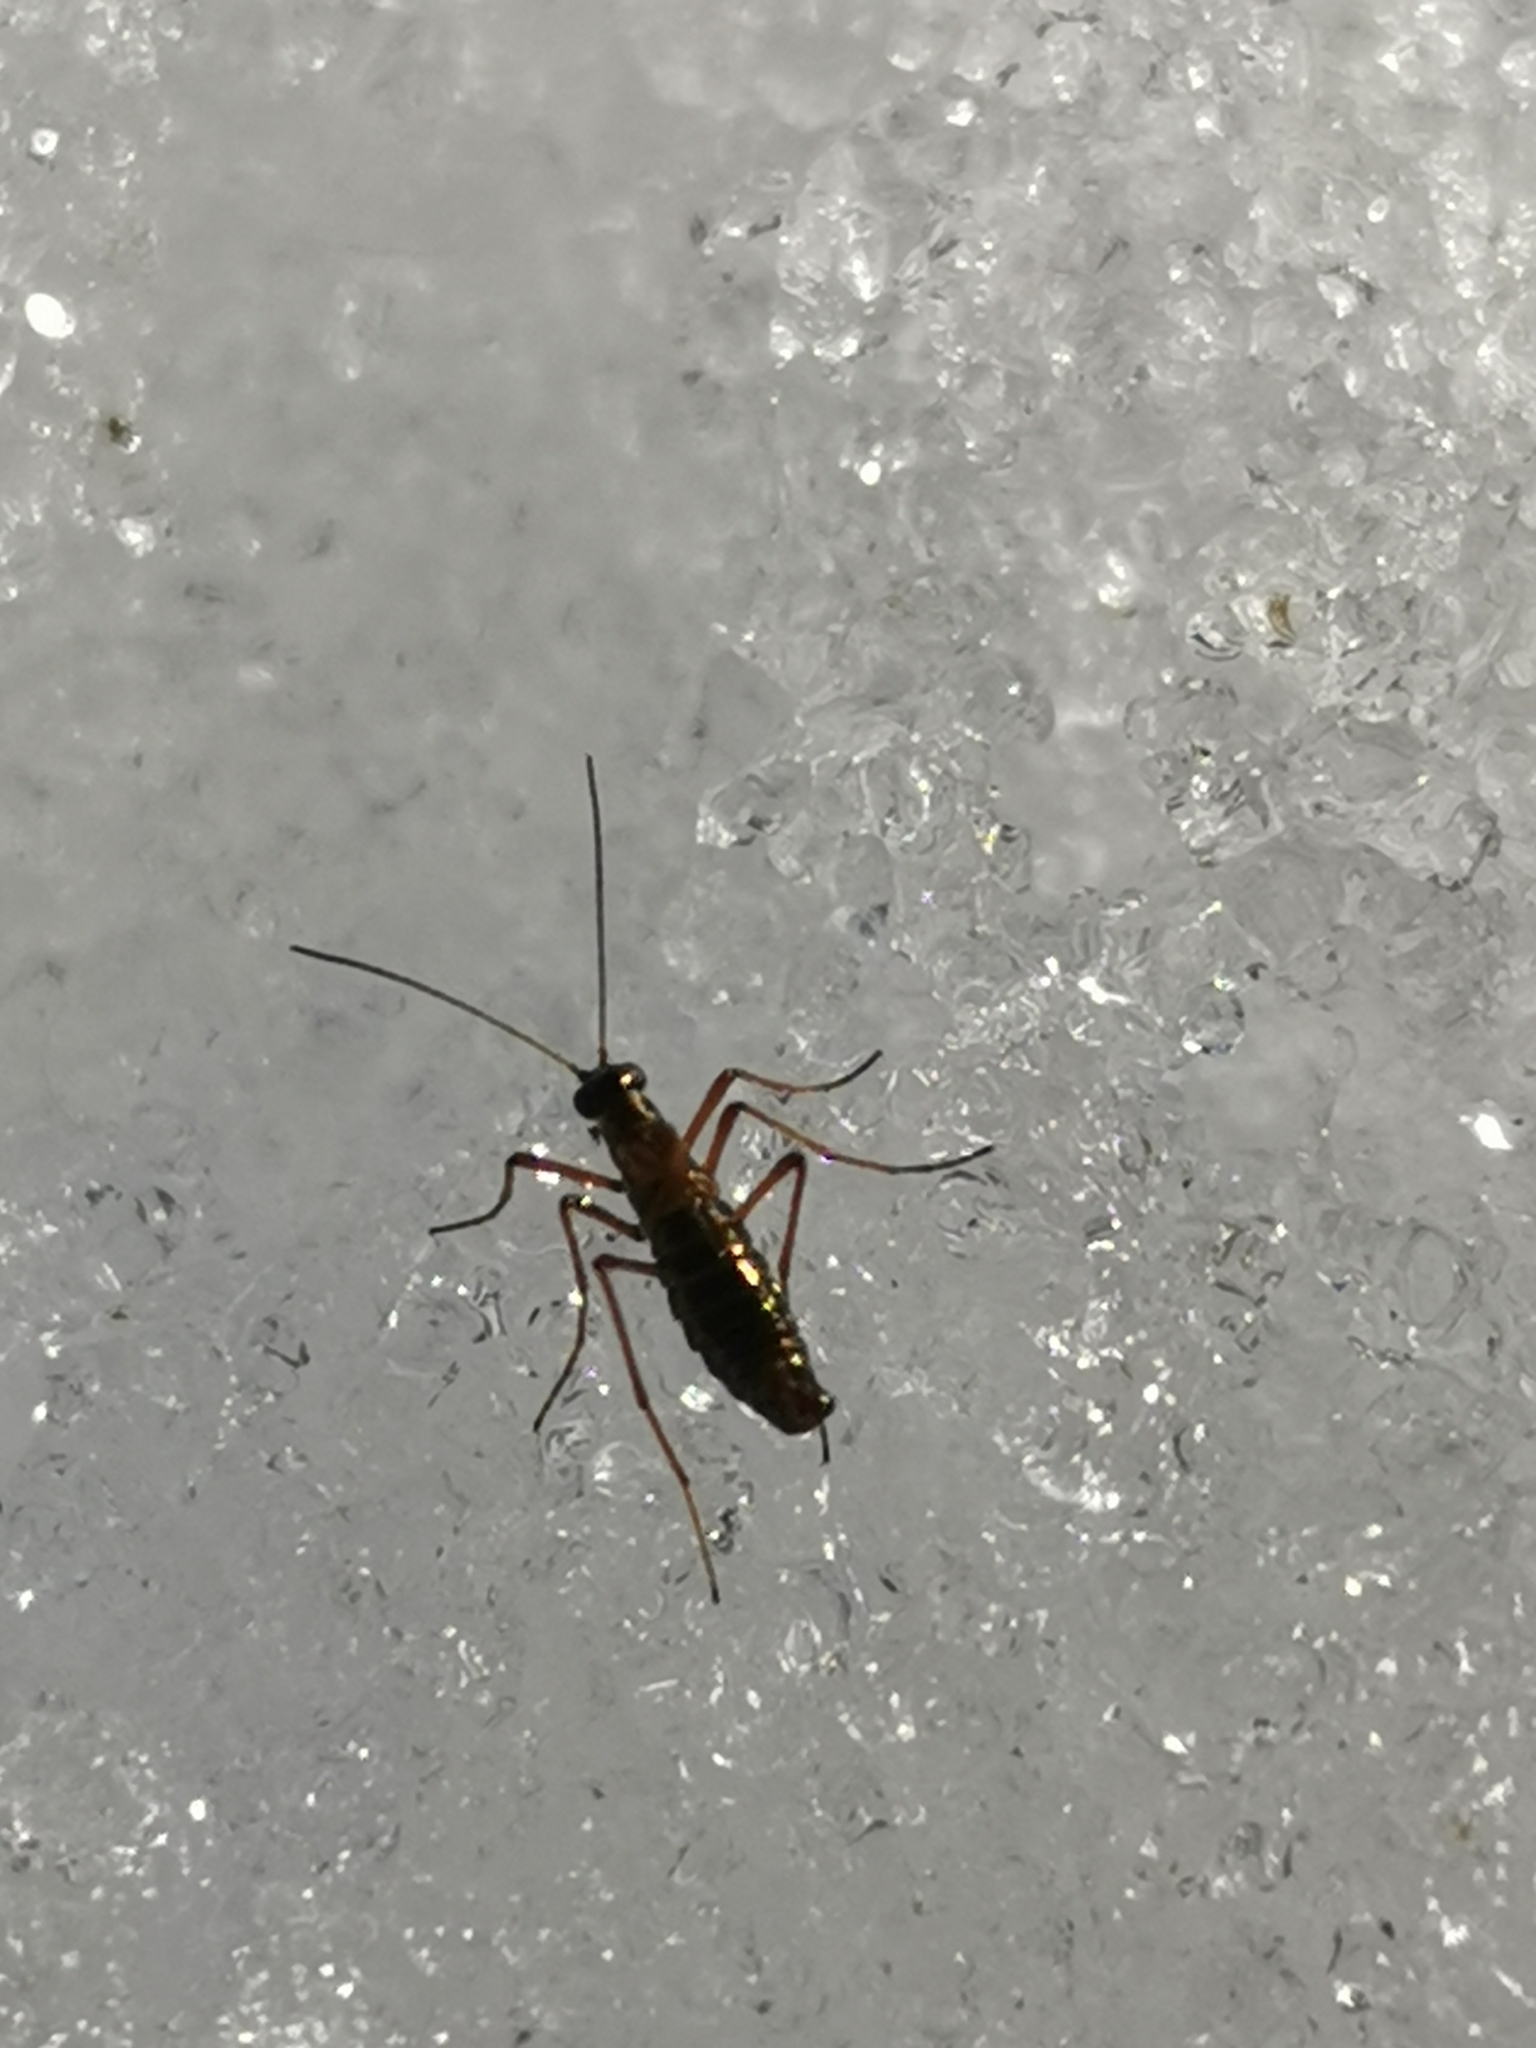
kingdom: Animalia
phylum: Arthropoda
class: Insecta
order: Mecoptera
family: Boreidae
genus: Boreus
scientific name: Boreus westwoodi
